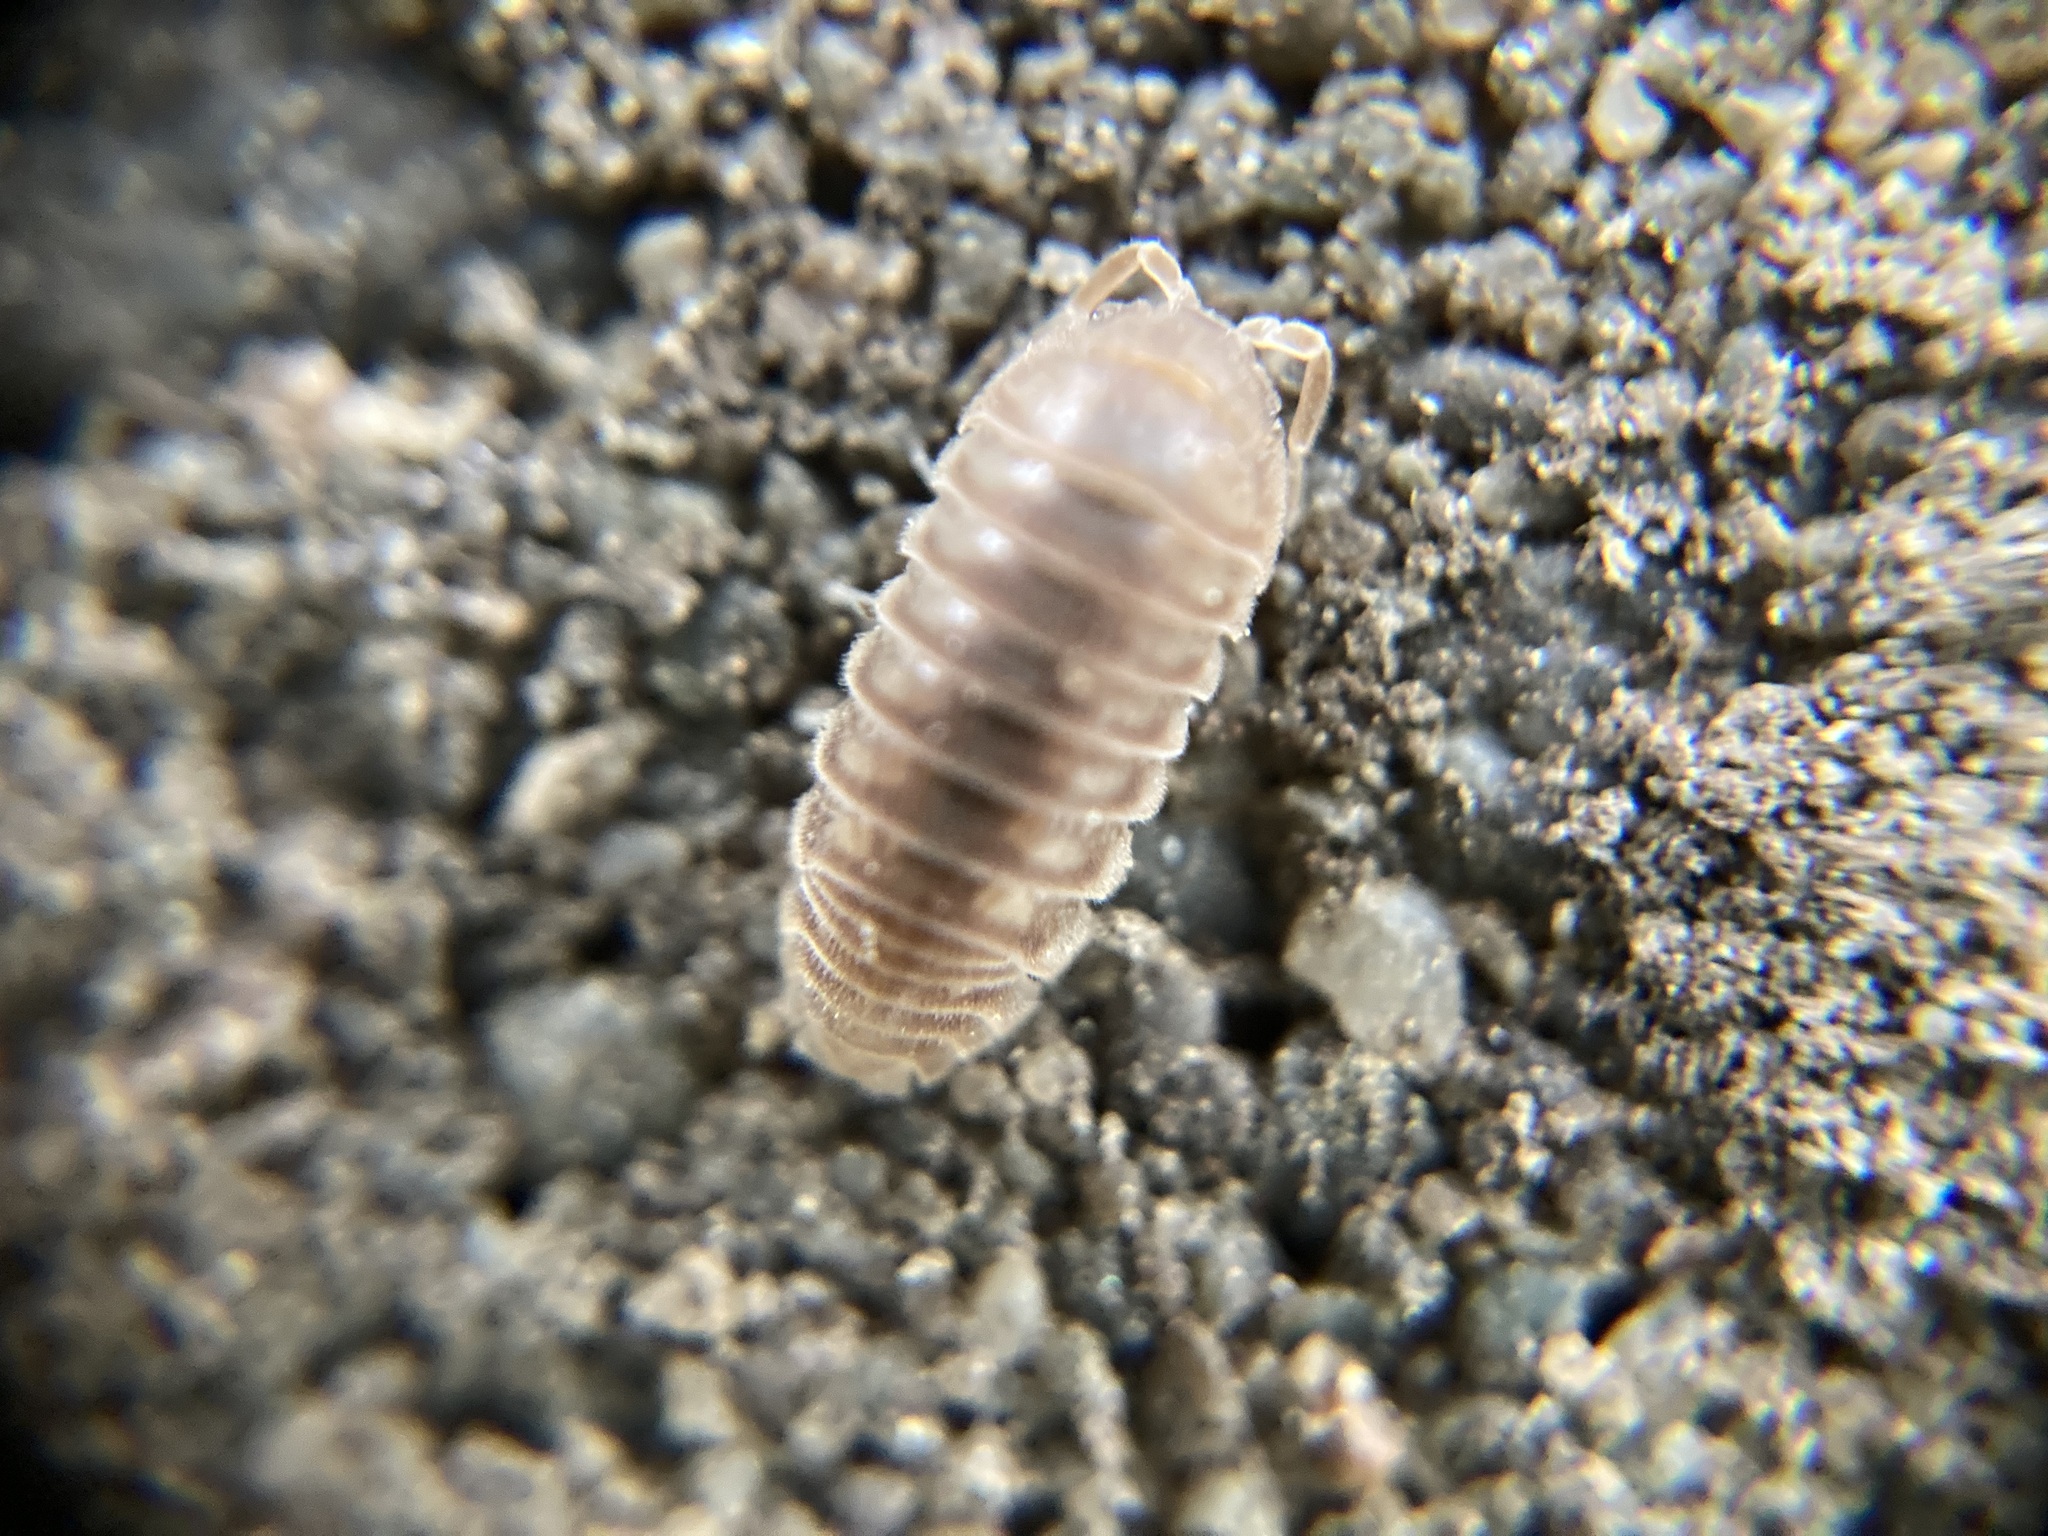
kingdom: Animalia
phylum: Arthropoda
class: Malacostraca
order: Isopoda
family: Armadillidiidae
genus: Eluma
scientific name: Eluma caelata
